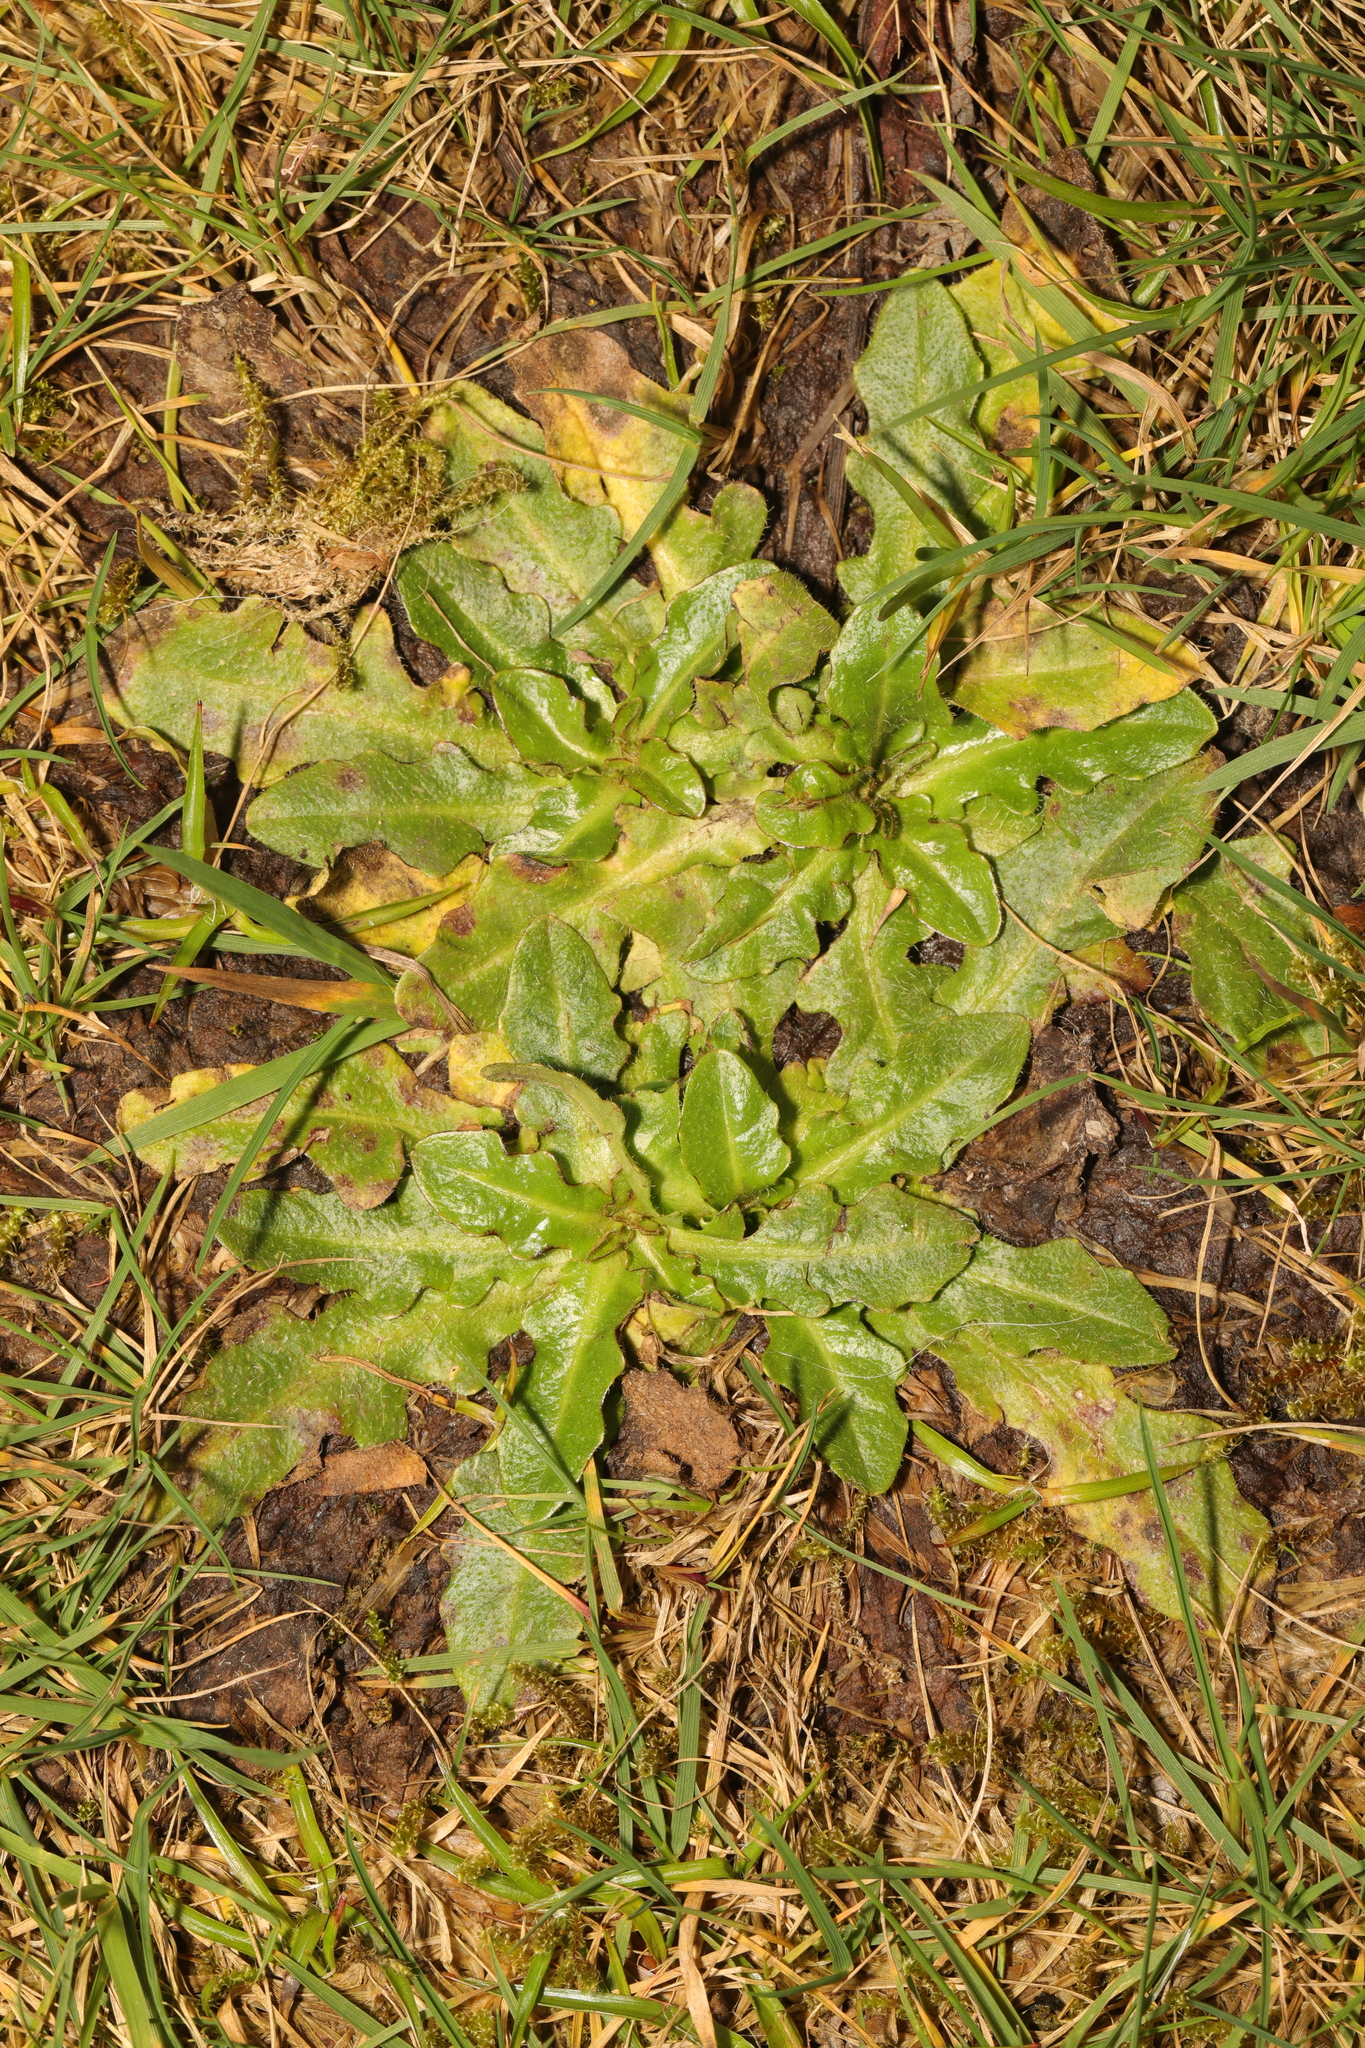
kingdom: Plantae
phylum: Tracheophyta
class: Magnoliopsida
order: Asterales
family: Asteraceae
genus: Hypochaeris
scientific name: Hypochaeris radicata
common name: Flatweed
